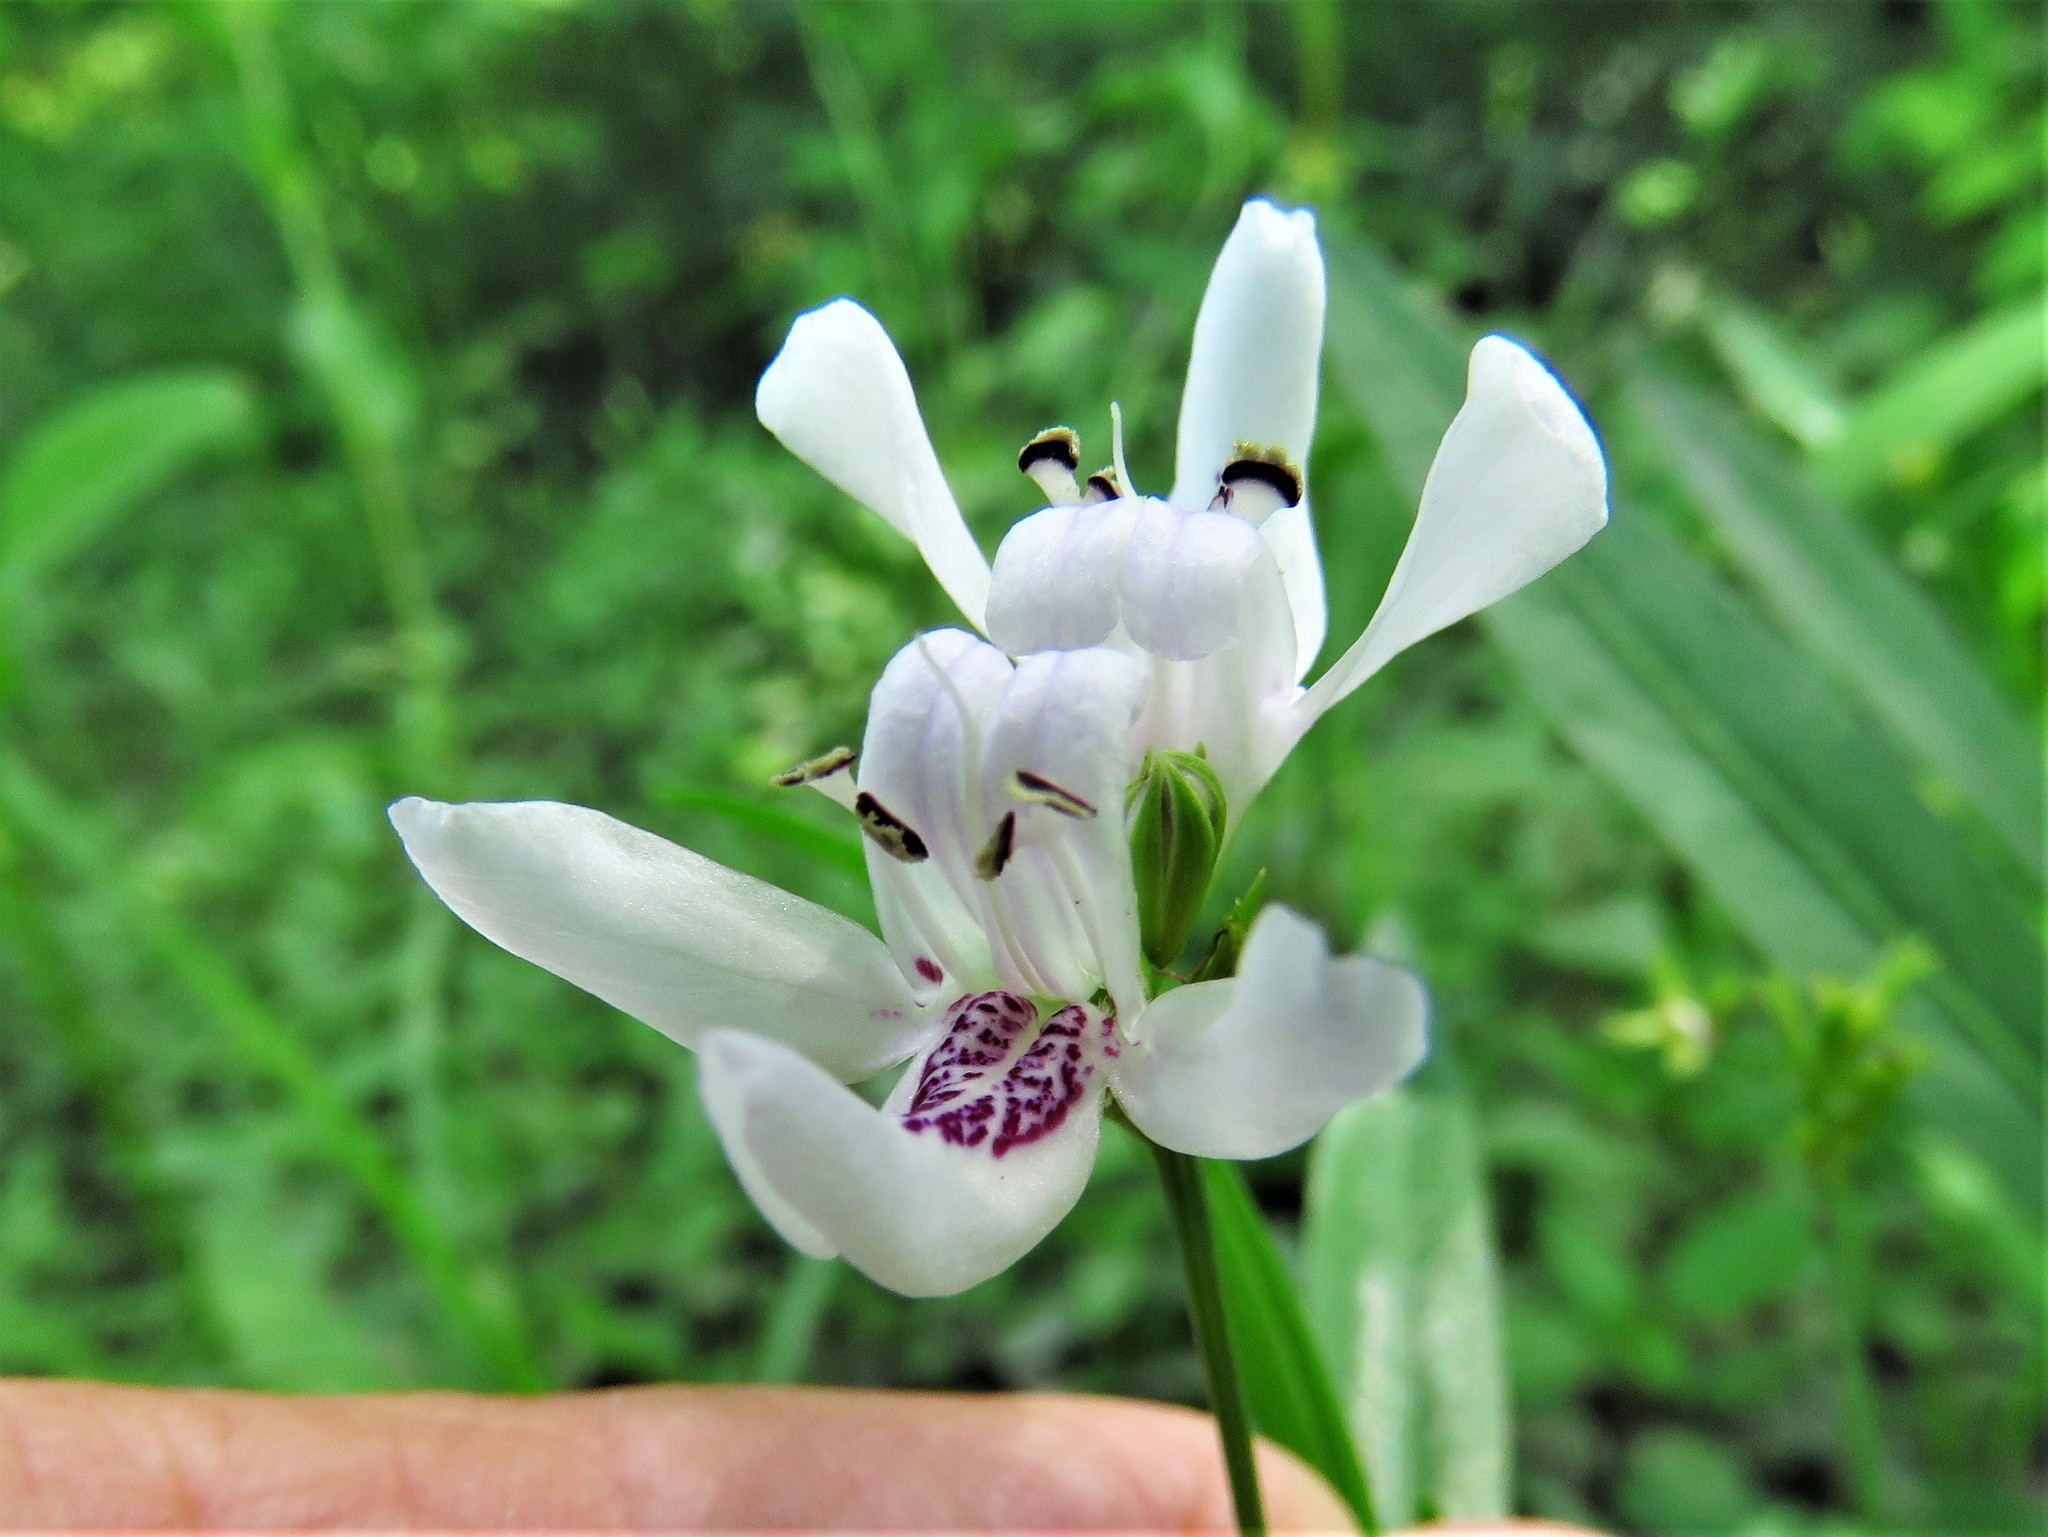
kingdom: Plantae
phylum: Tracheophyta
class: Magnoliopsida
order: Lamiales
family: Acanthaceae
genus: Dianthera
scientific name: Dianthera americana
